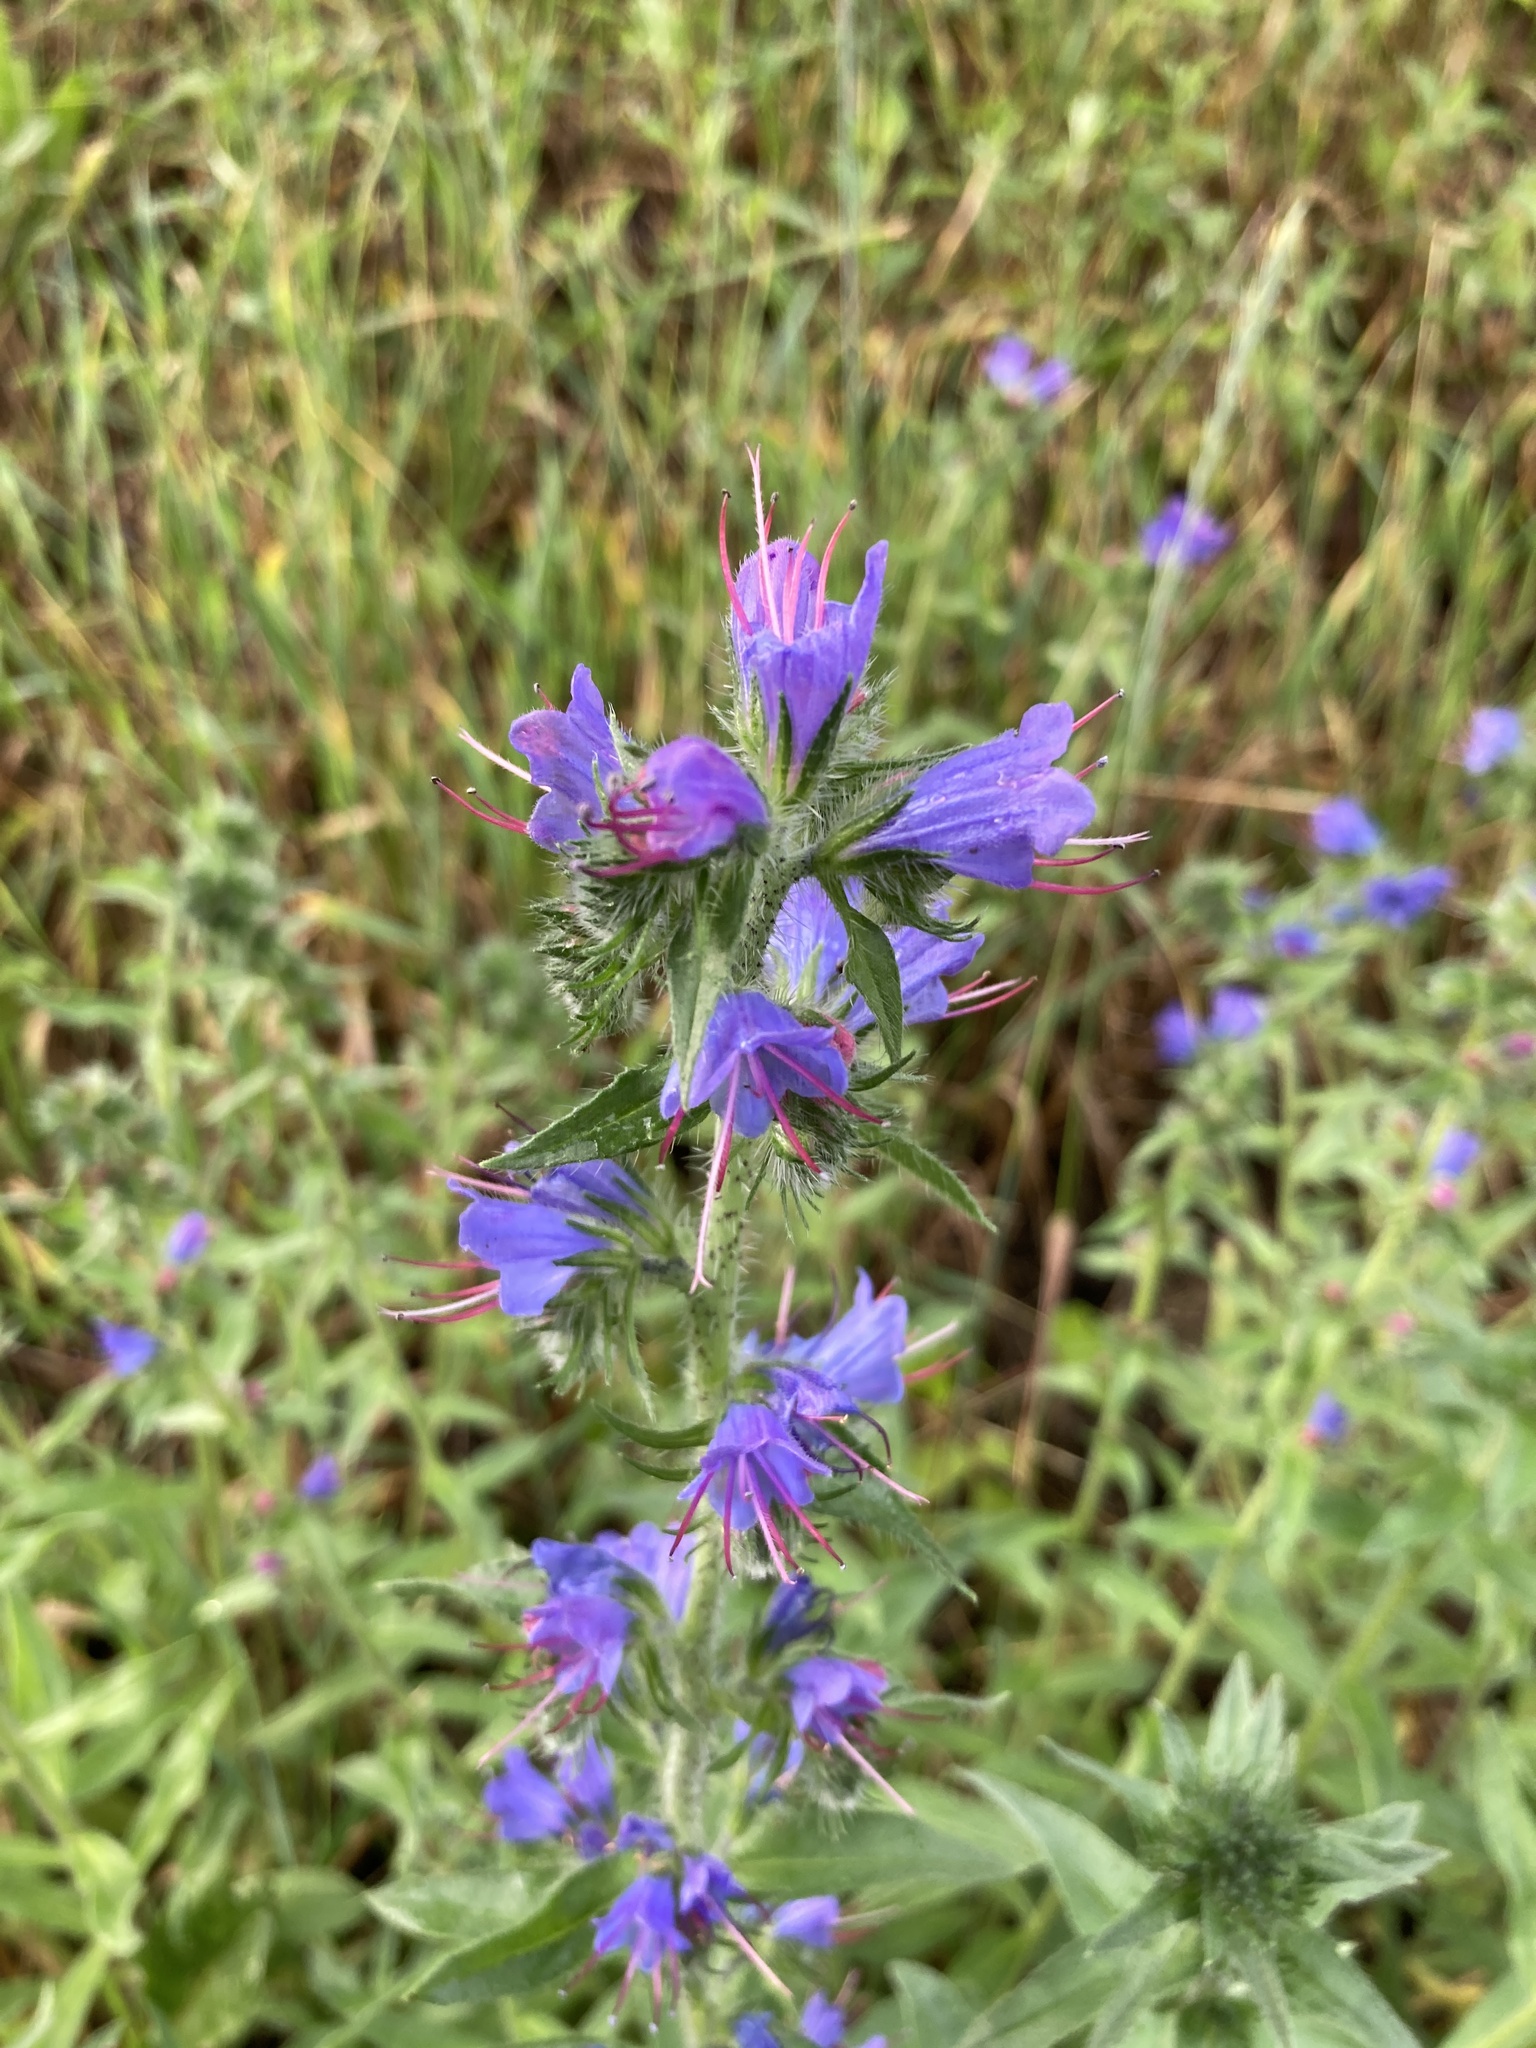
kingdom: Plantae
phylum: Tracheophyta
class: Magnoliopsida
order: Boraginales
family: Boraginaceae
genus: Echium
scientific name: Echium vulgare
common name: Common viper's bugloss
